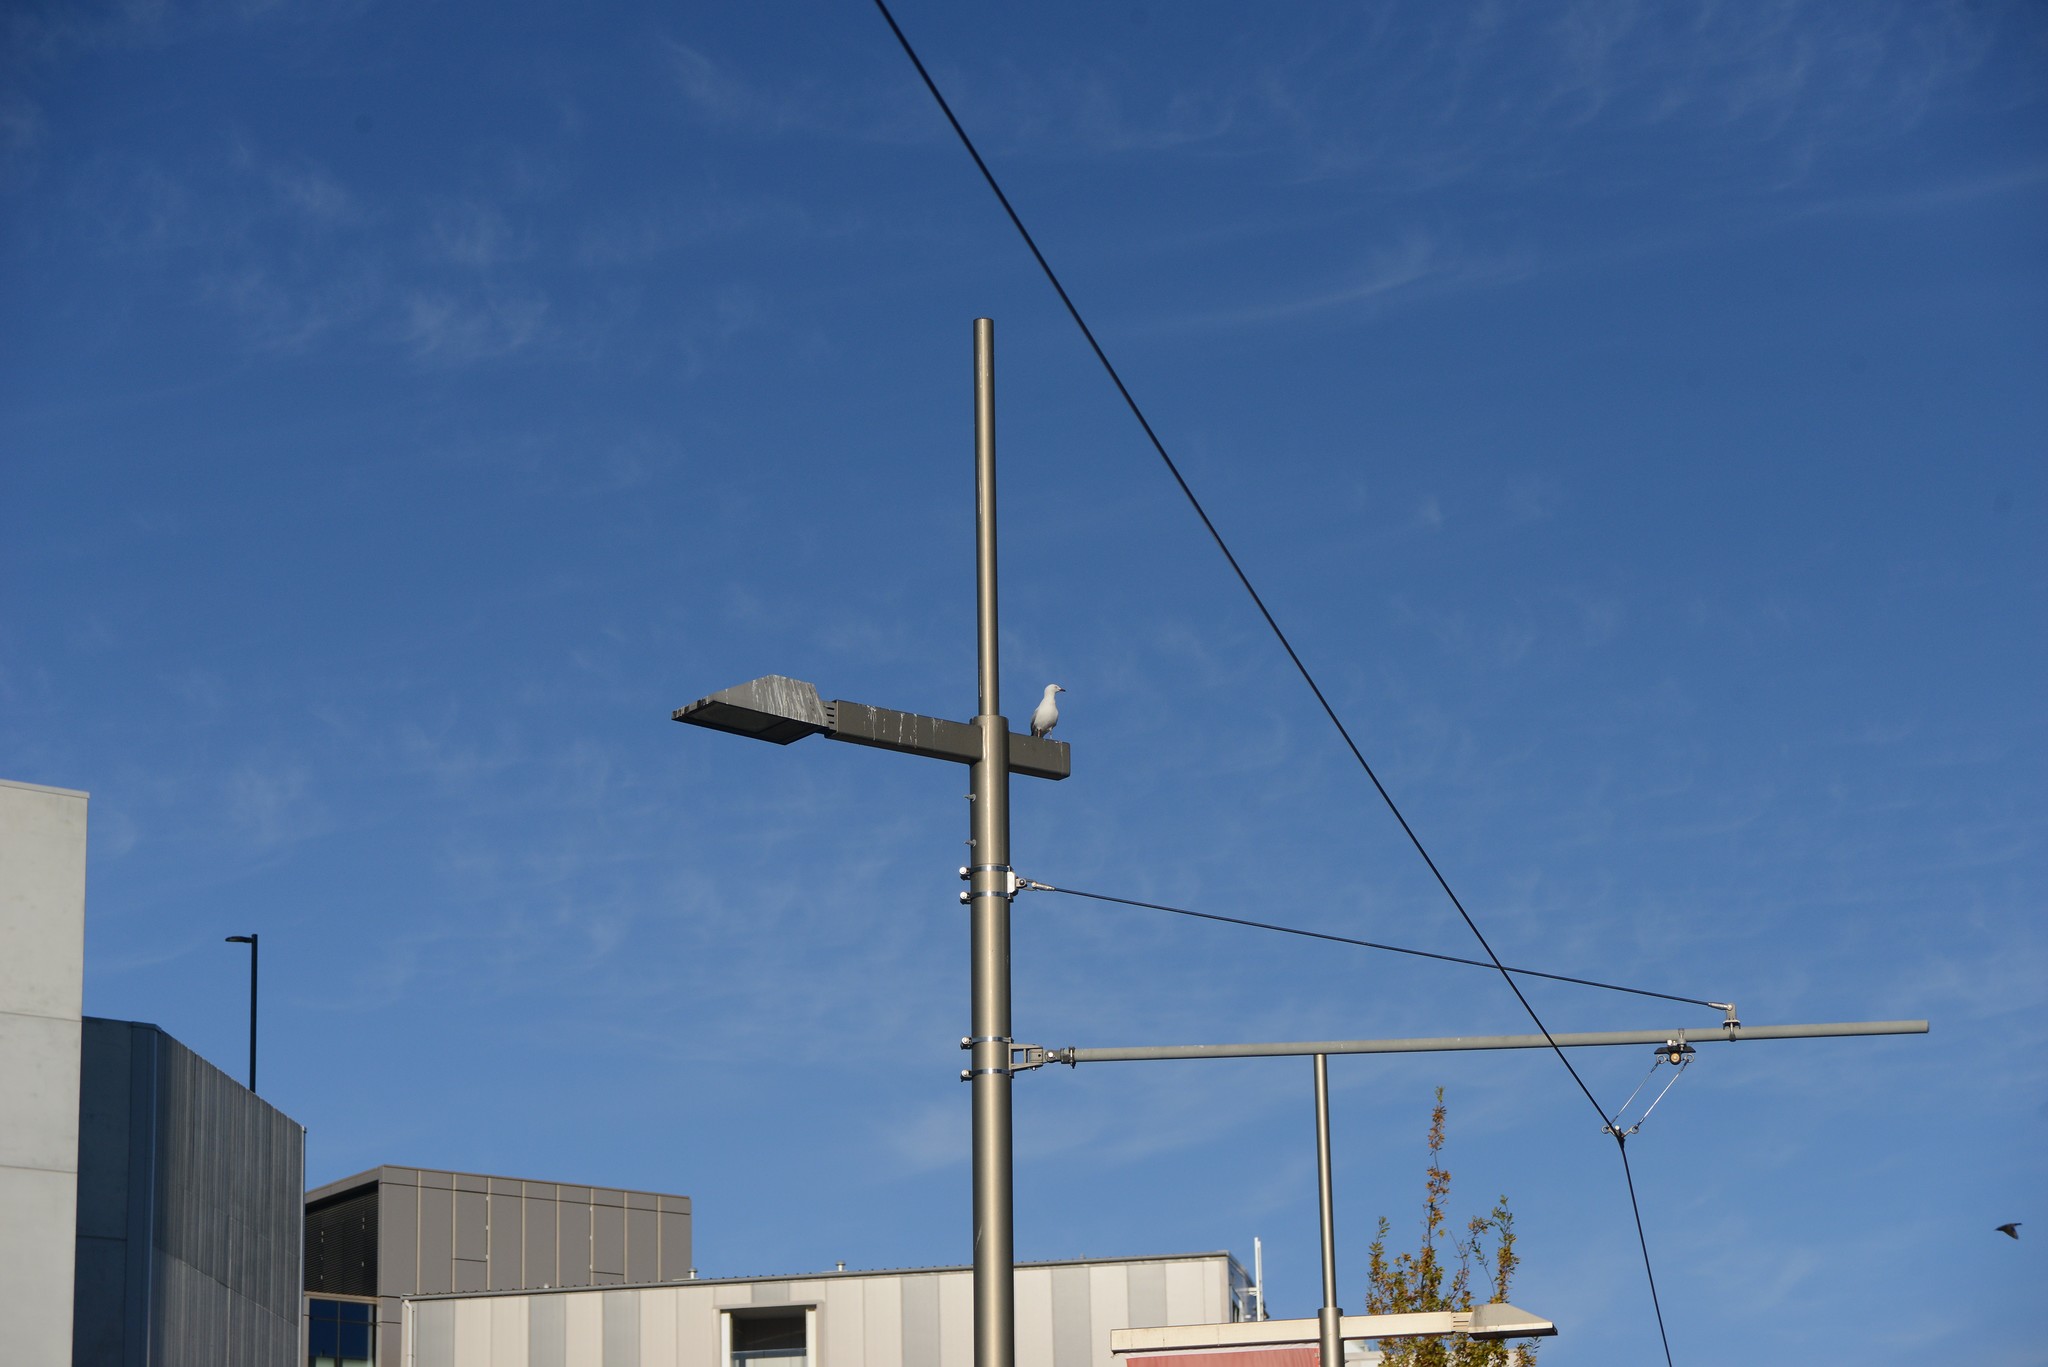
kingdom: Animalia
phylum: Chordata
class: Aves
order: Charadriiformes
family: Laridae
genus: Chroicocephalus
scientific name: Chroicocephalus novaehollandiae
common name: Silver gull
